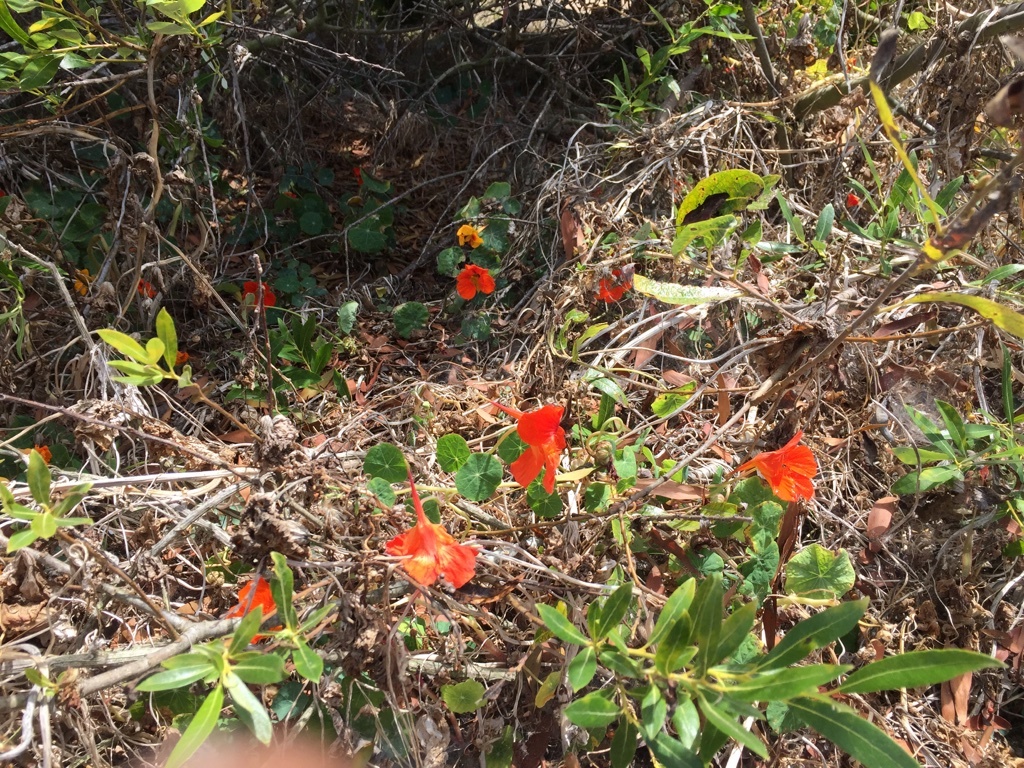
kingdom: Plantae
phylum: Tracheophyta
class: Magnoliopsida
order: Brassicales
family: Tropaeolaceae
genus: Tropaeolum
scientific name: Tropaeolum majus
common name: Nasturtium
